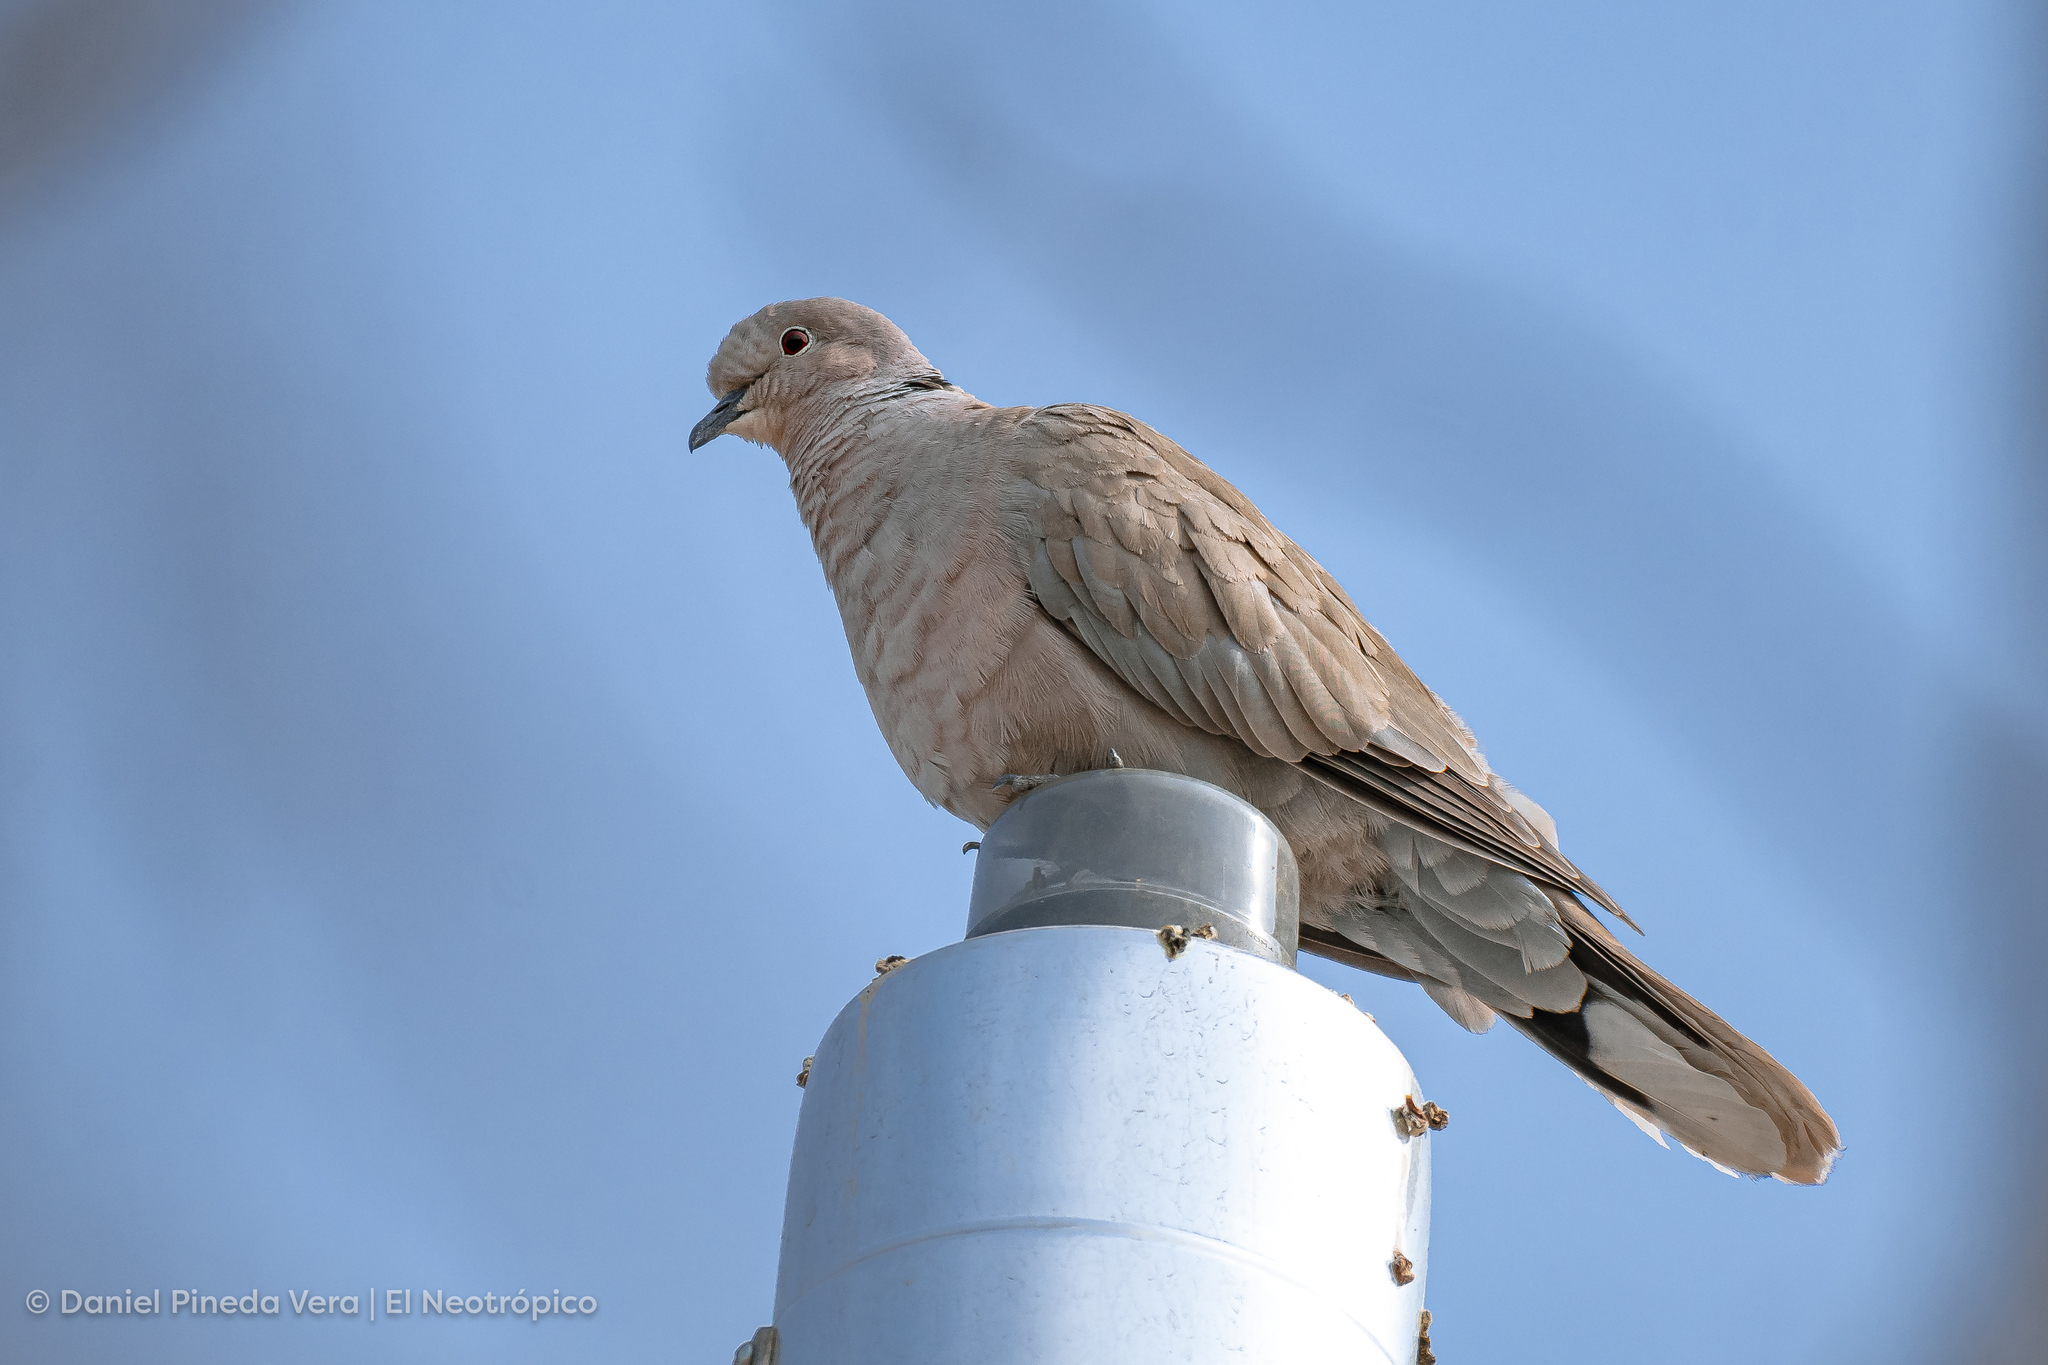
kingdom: Animalia
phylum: Chordata
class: Aves
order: Columbiformes
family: Columbidae
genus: Streptopelia
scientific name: Streptopelia decaocto
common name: Eurasian collared dove
